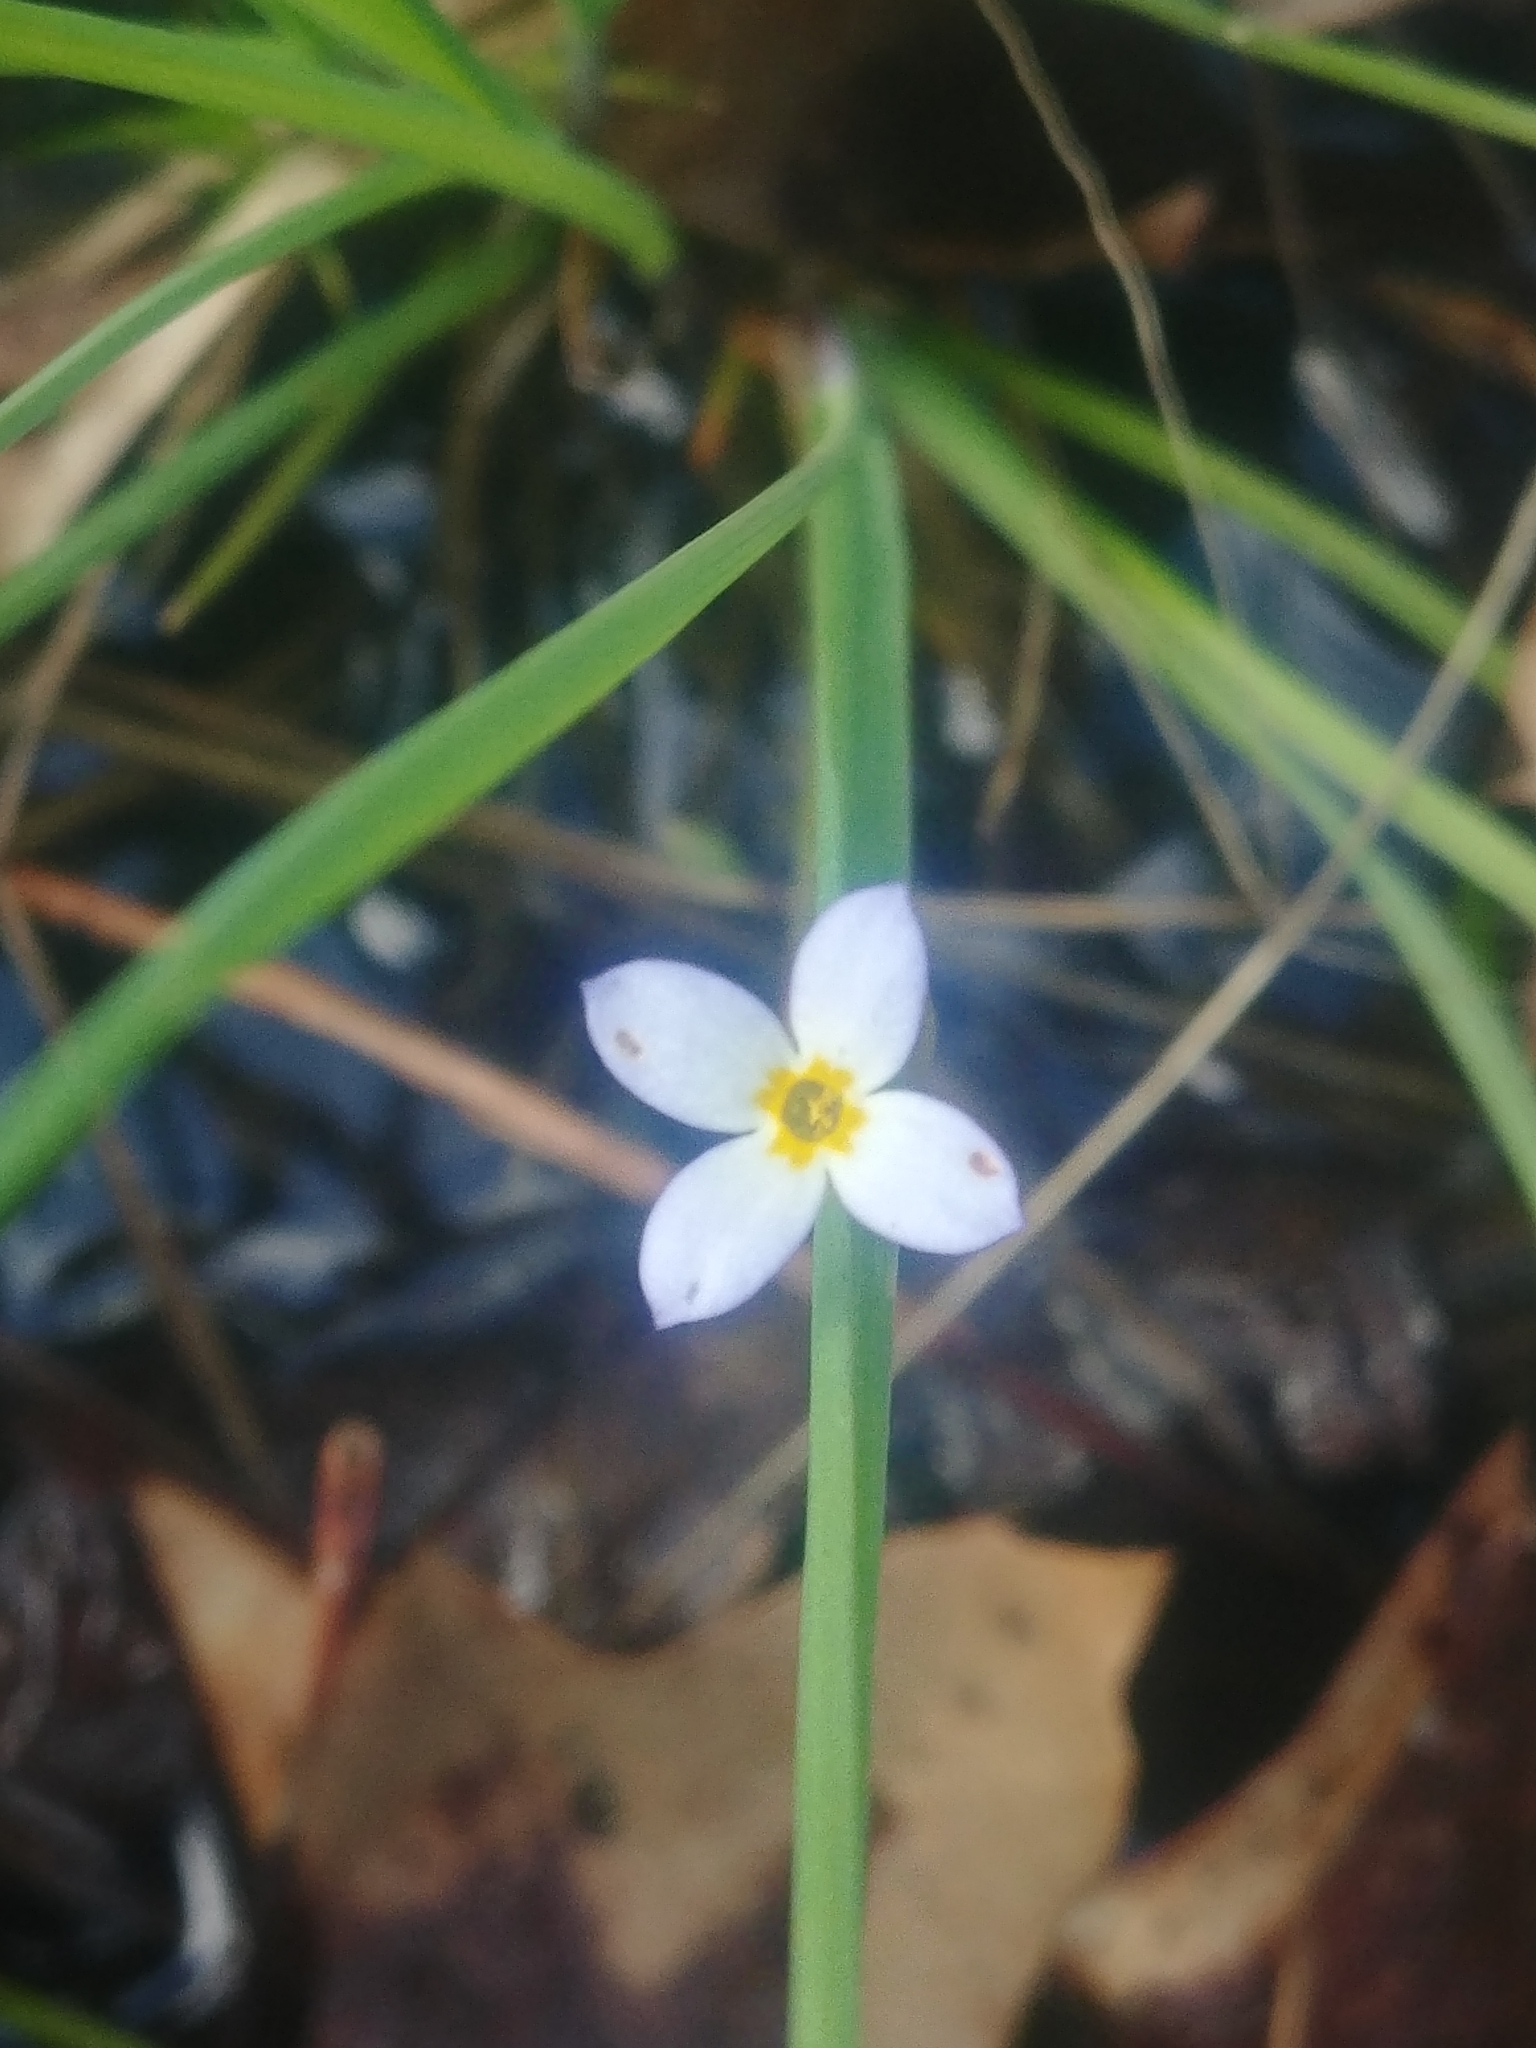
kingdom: Plantae
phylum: Tracheophyta
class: Magnoliopsida
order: Gentianales
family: Rubiaceae
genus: Houstonia
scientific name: Houstonia caerulea
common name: Bluets
